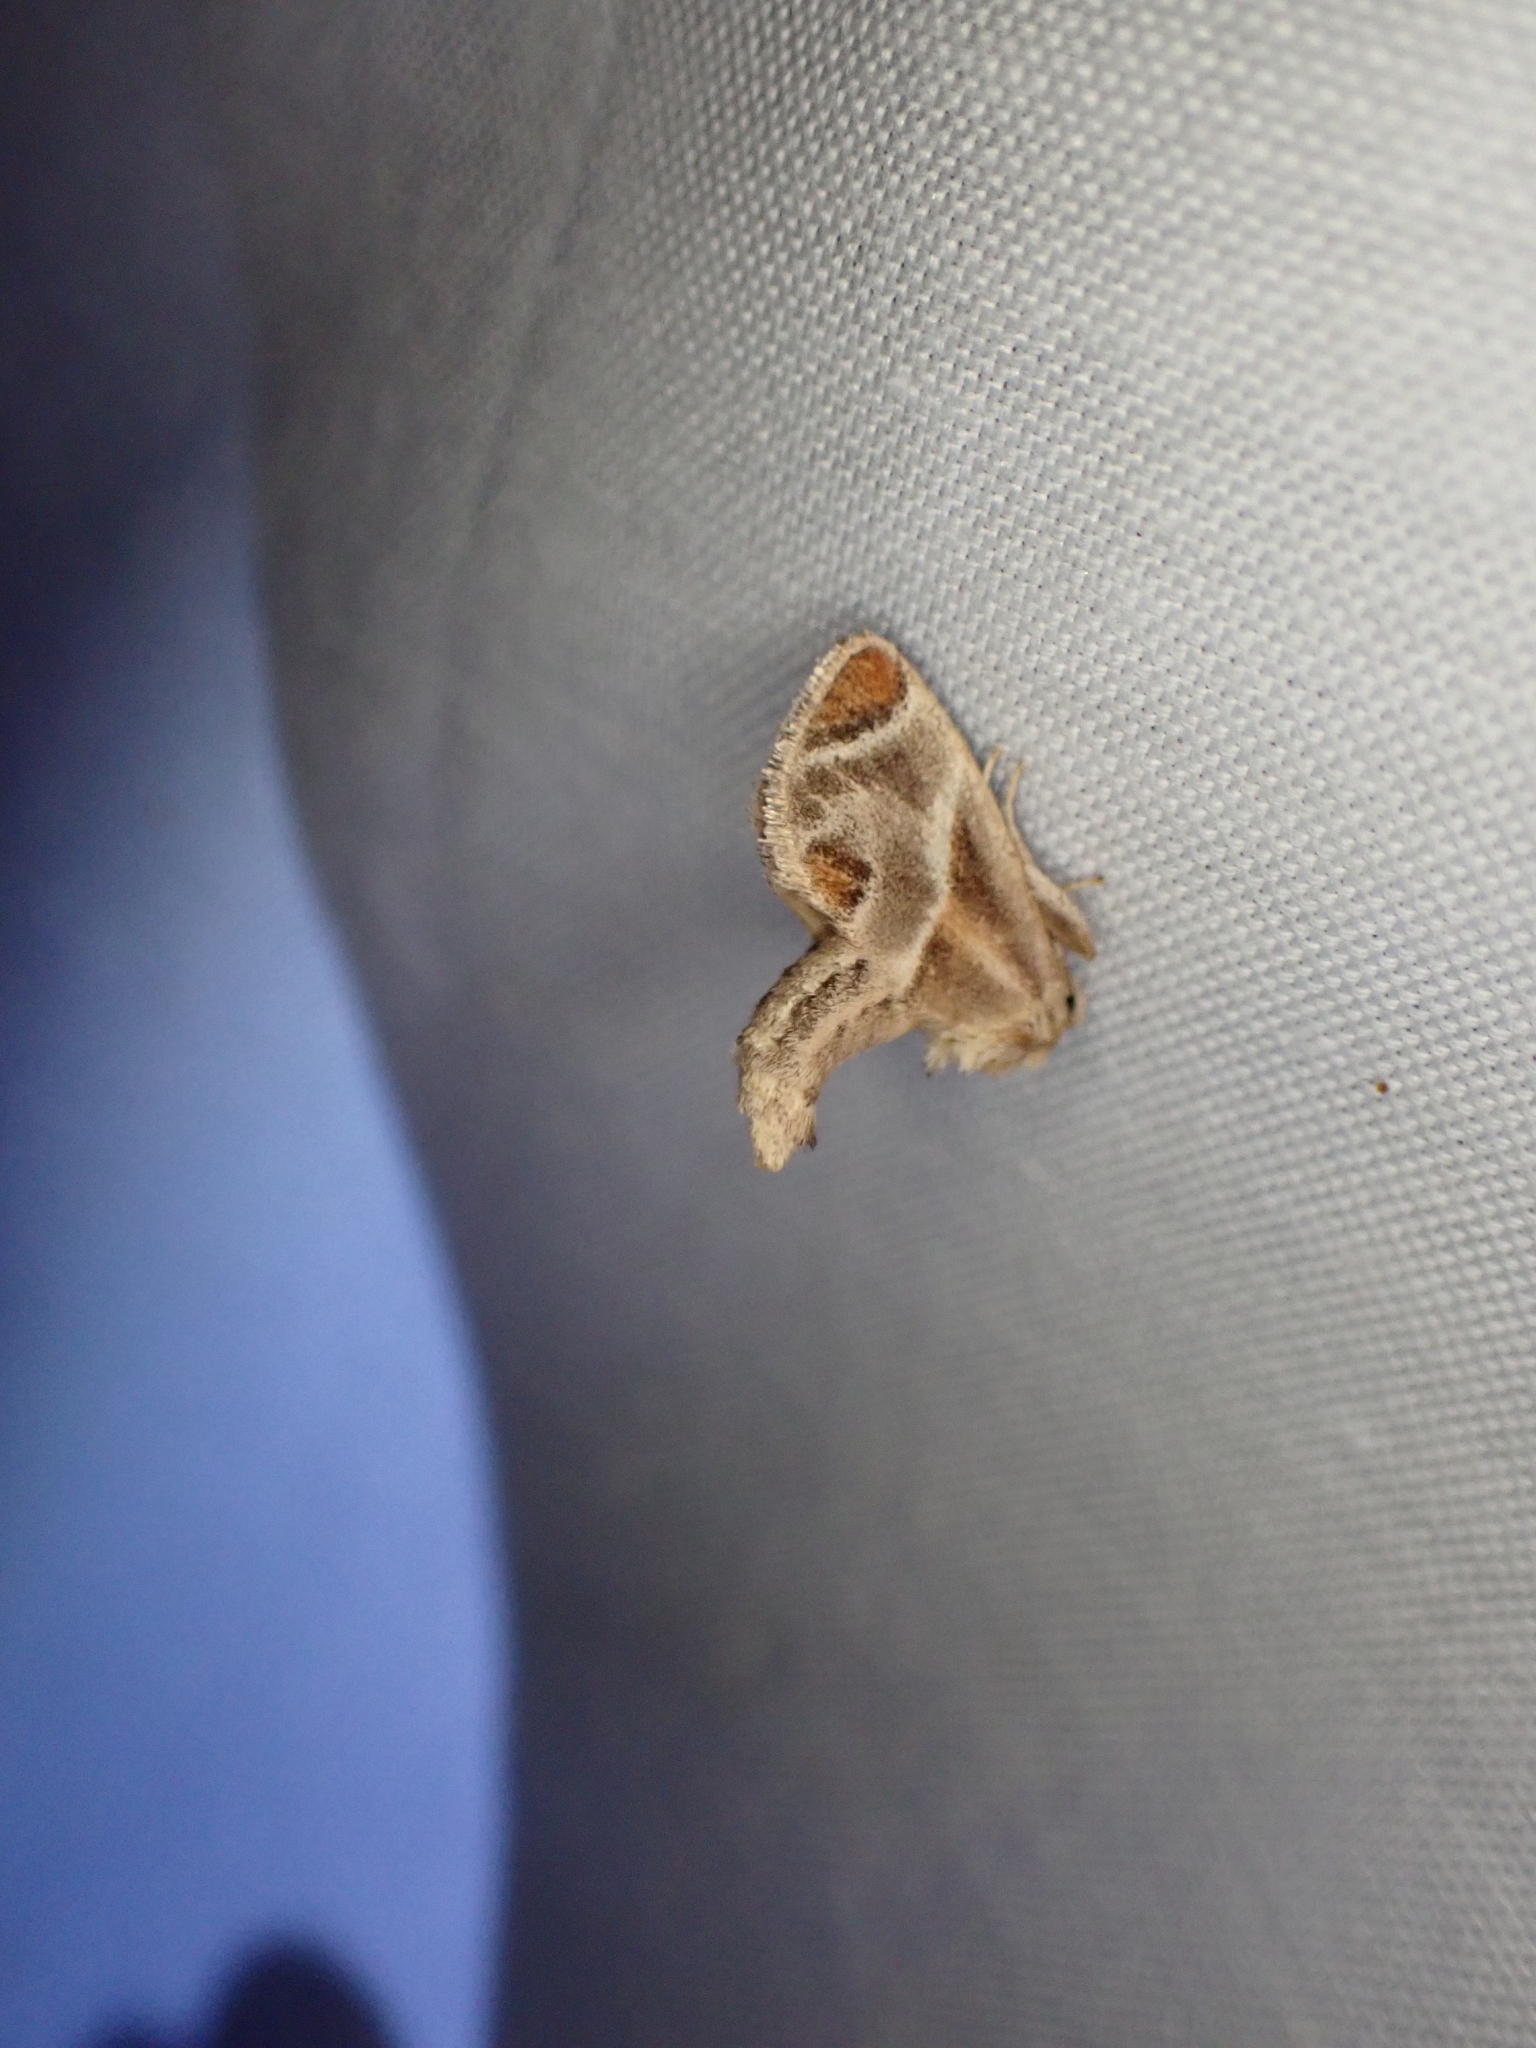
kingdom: Animalia
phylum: Arthropoda
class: Insecta
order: Lepidoptera
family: Limacodidae
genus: Apoda
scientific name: Apoda biguttata
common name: Shagreened slug moth
